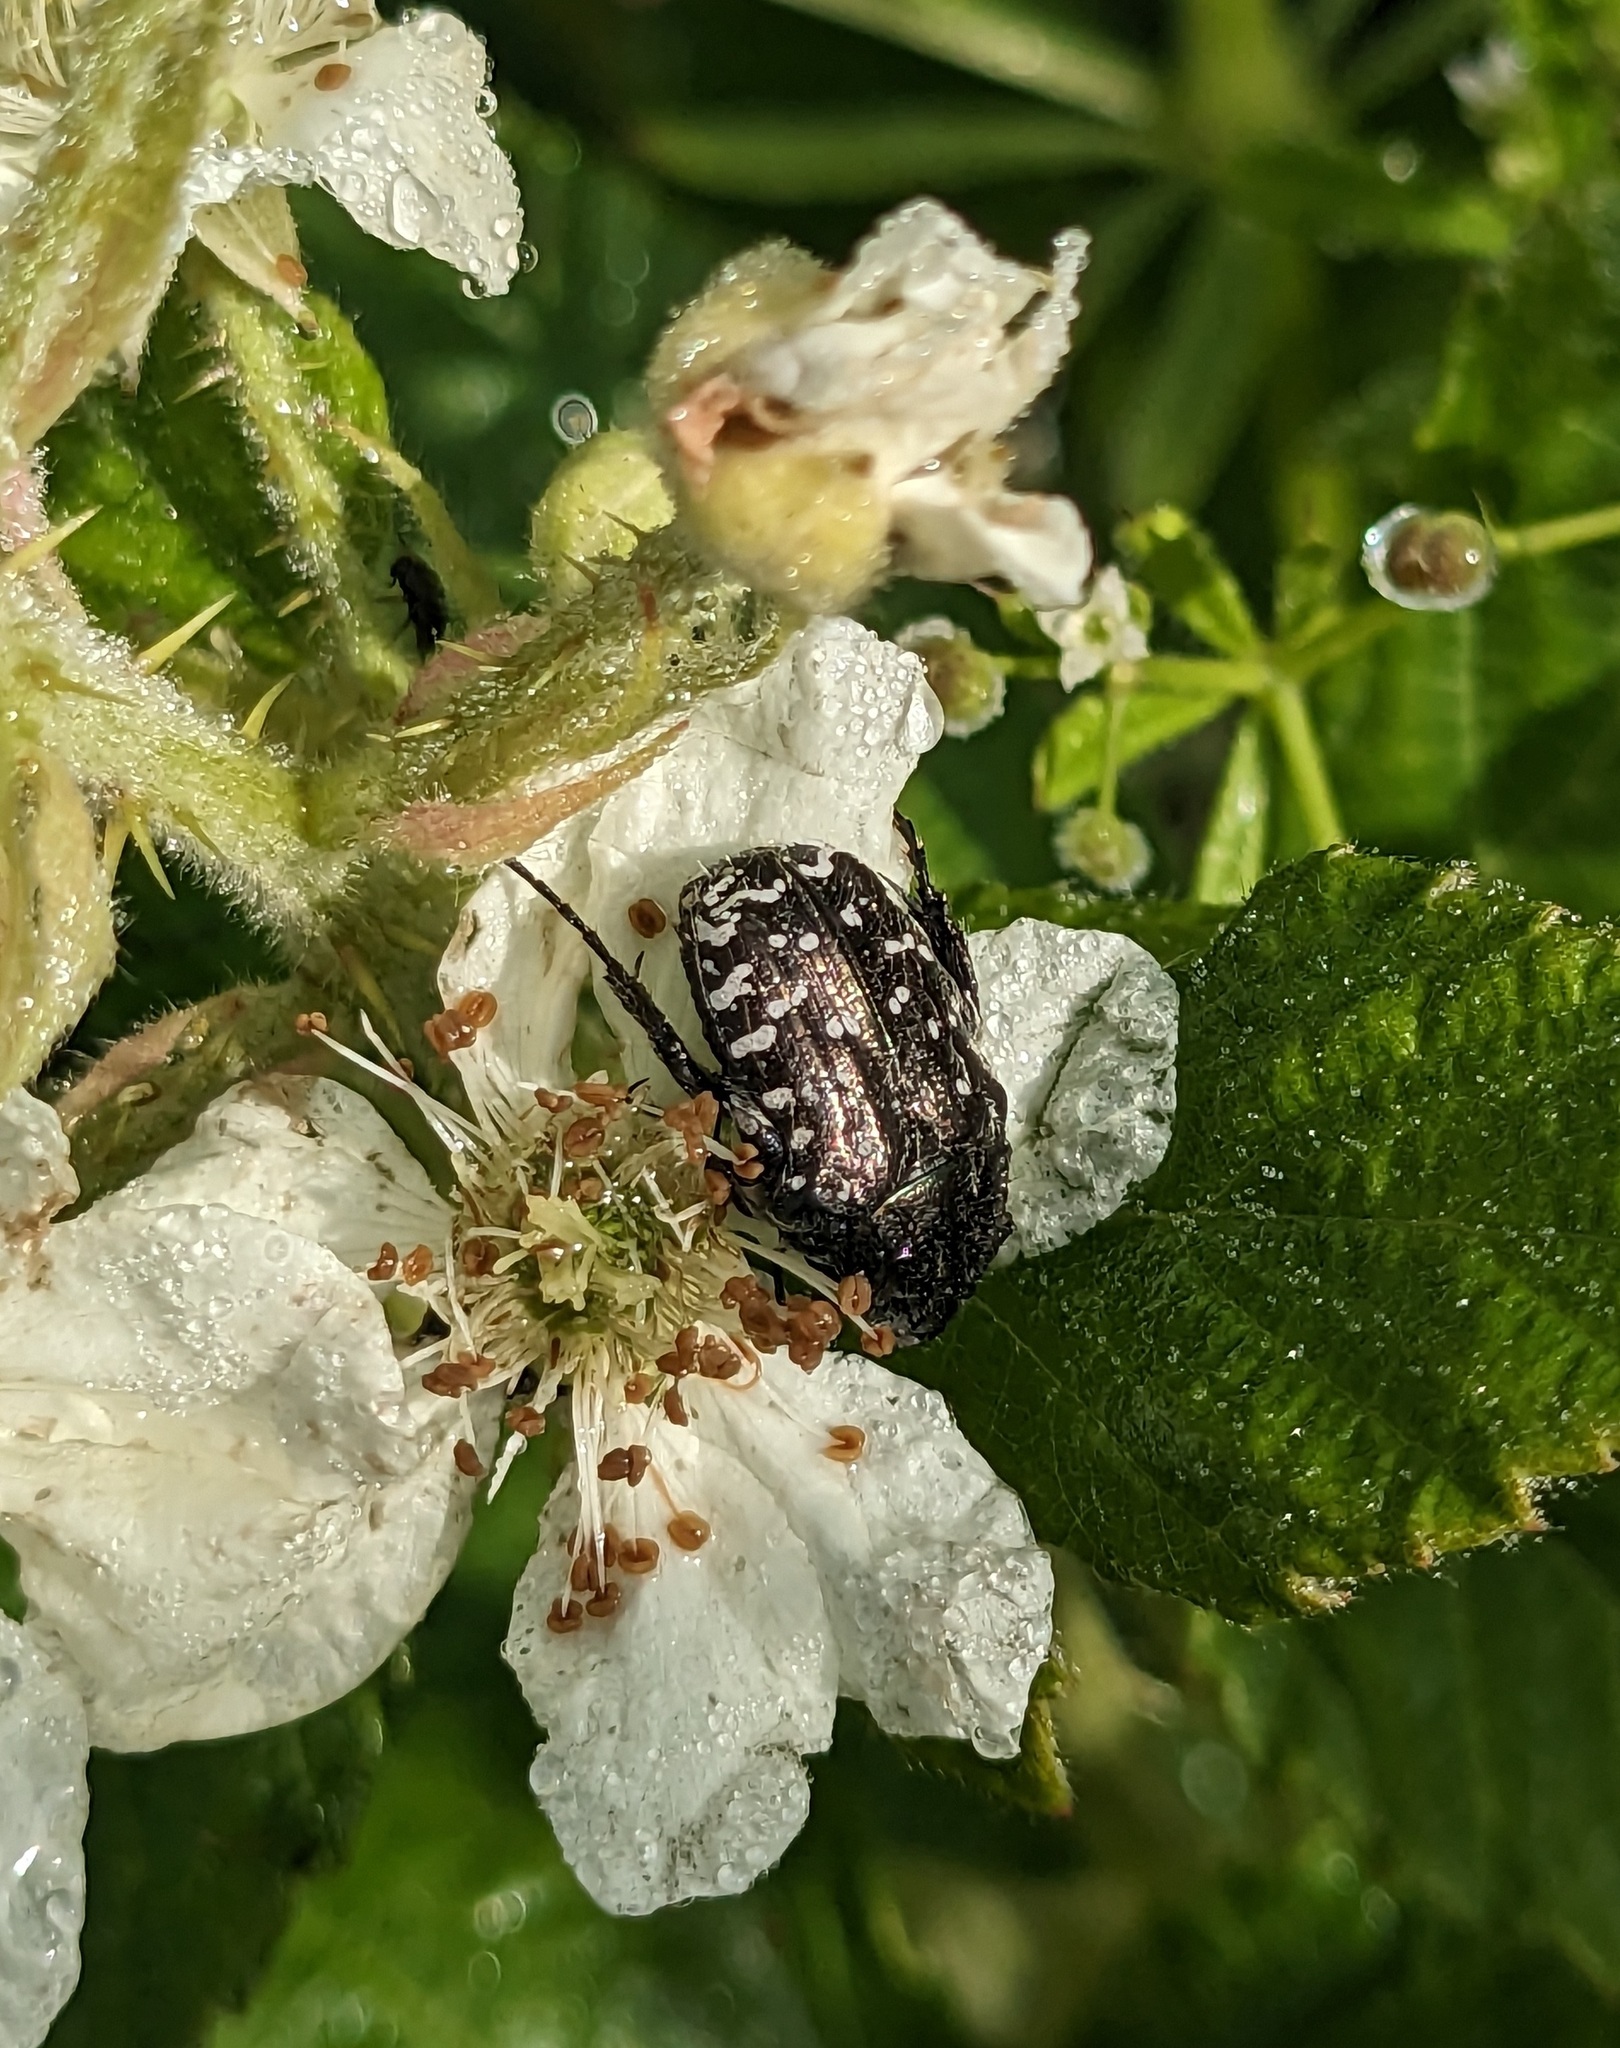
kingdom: Animalia
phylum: Arthropoda
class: Insecta
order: Coleoptera
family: Scarabaeidae
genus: Oxythyrea
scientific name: Oxythyrea funesta
